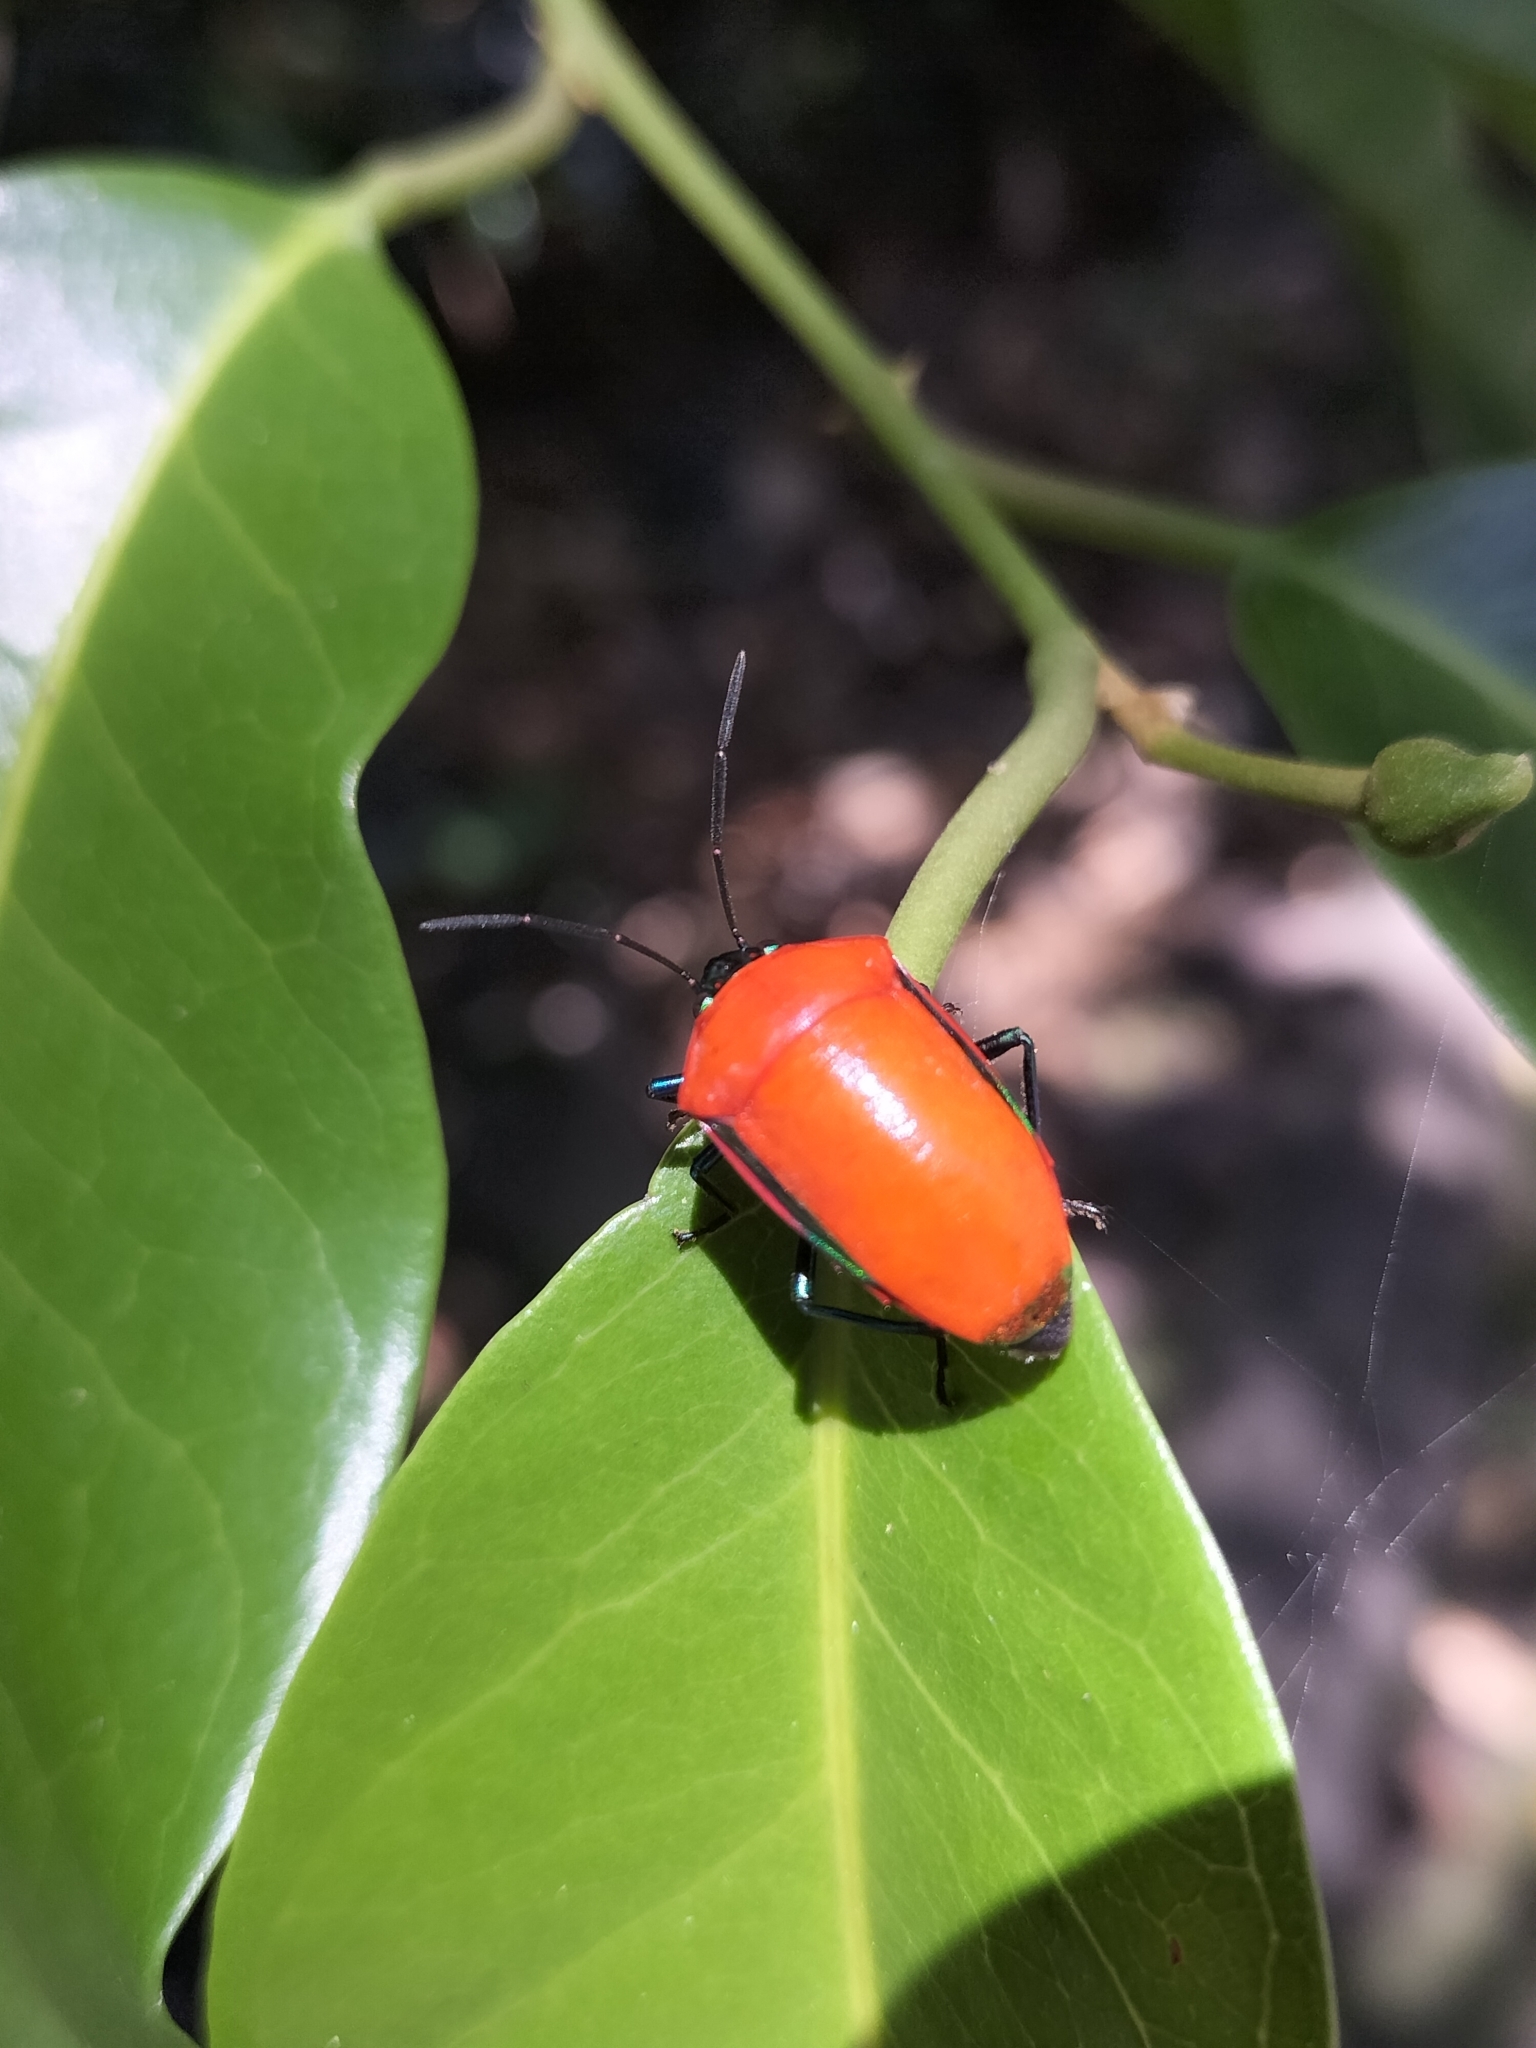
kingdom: Animalia
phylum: Arthropoda
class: Insecta
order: Hemiptera
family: Scutelleridae
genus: Calliphara
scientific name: Calliphara
